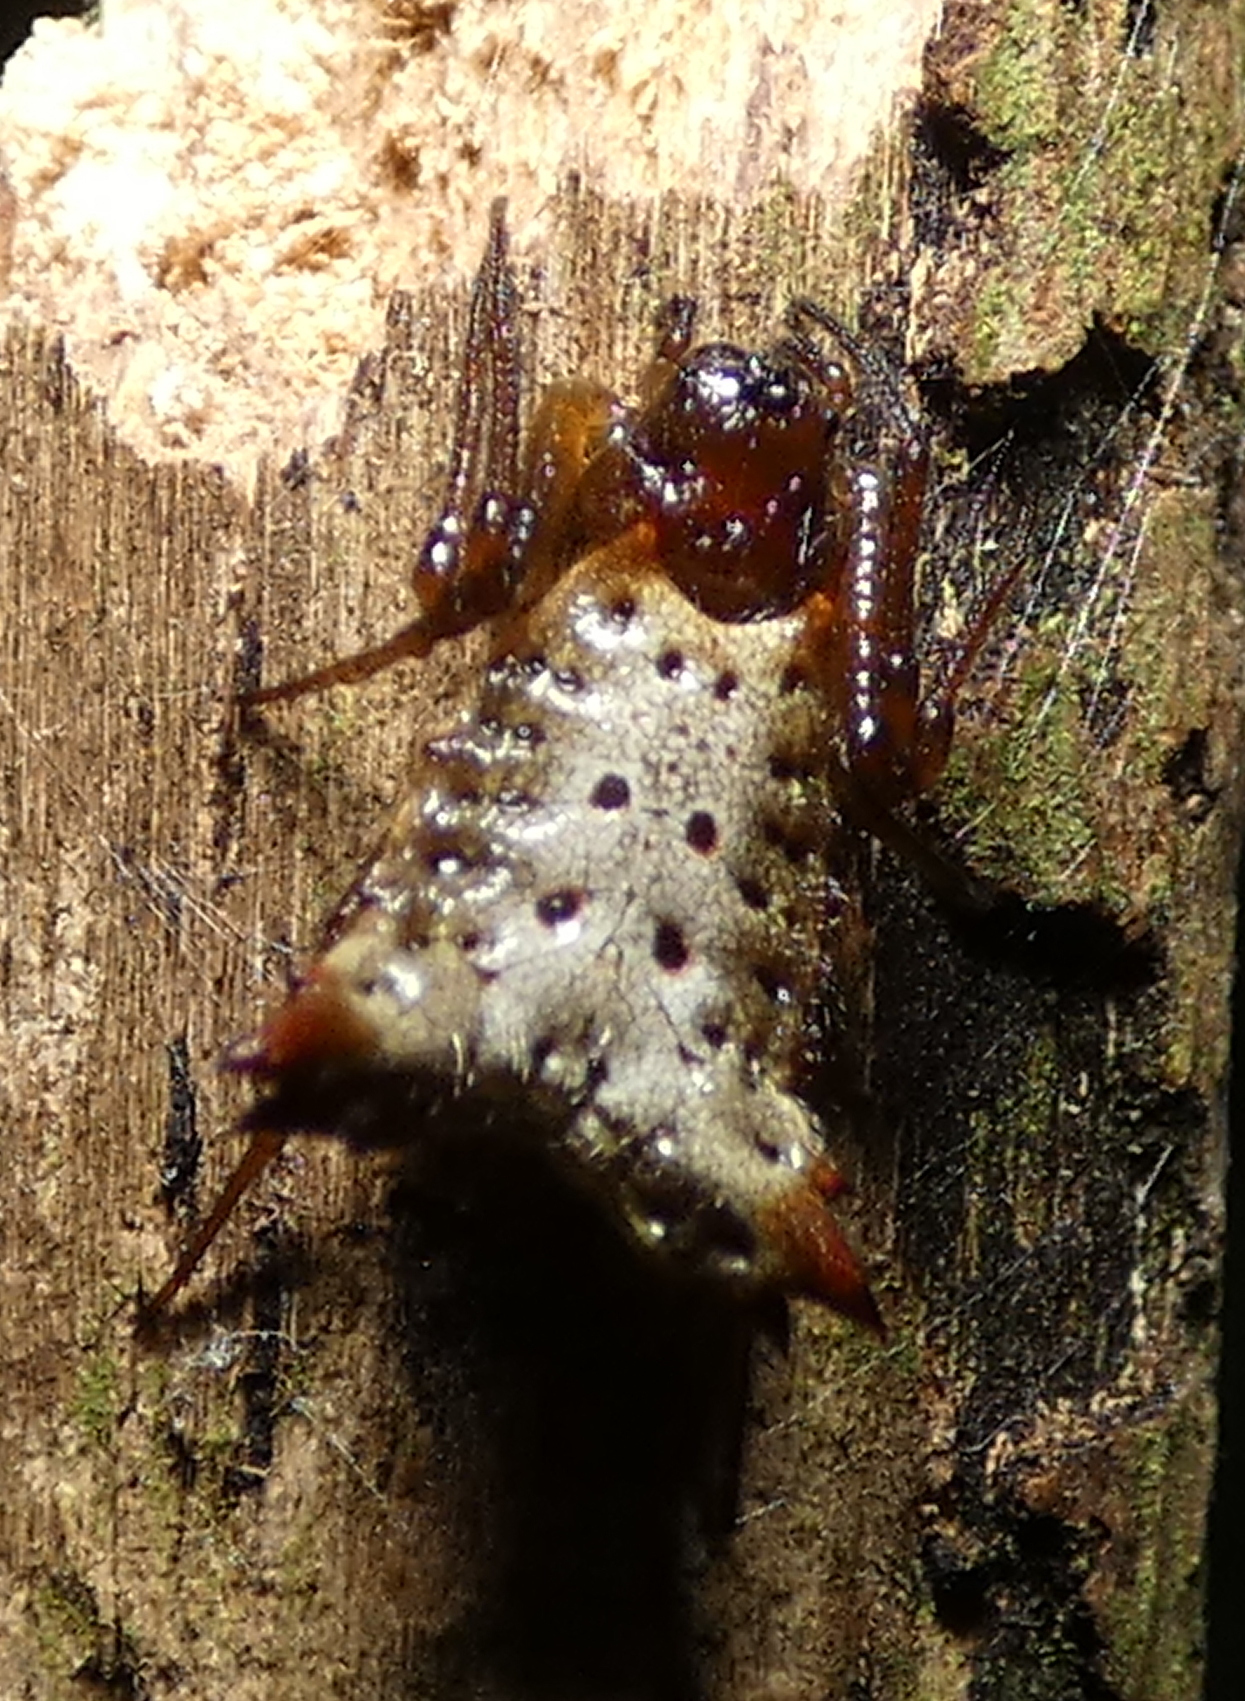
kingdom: Animalia
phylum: Arthropoda
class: Arachnida
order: Araneae
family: Araneidae
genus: Micrathena
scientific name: Micrathena plana
